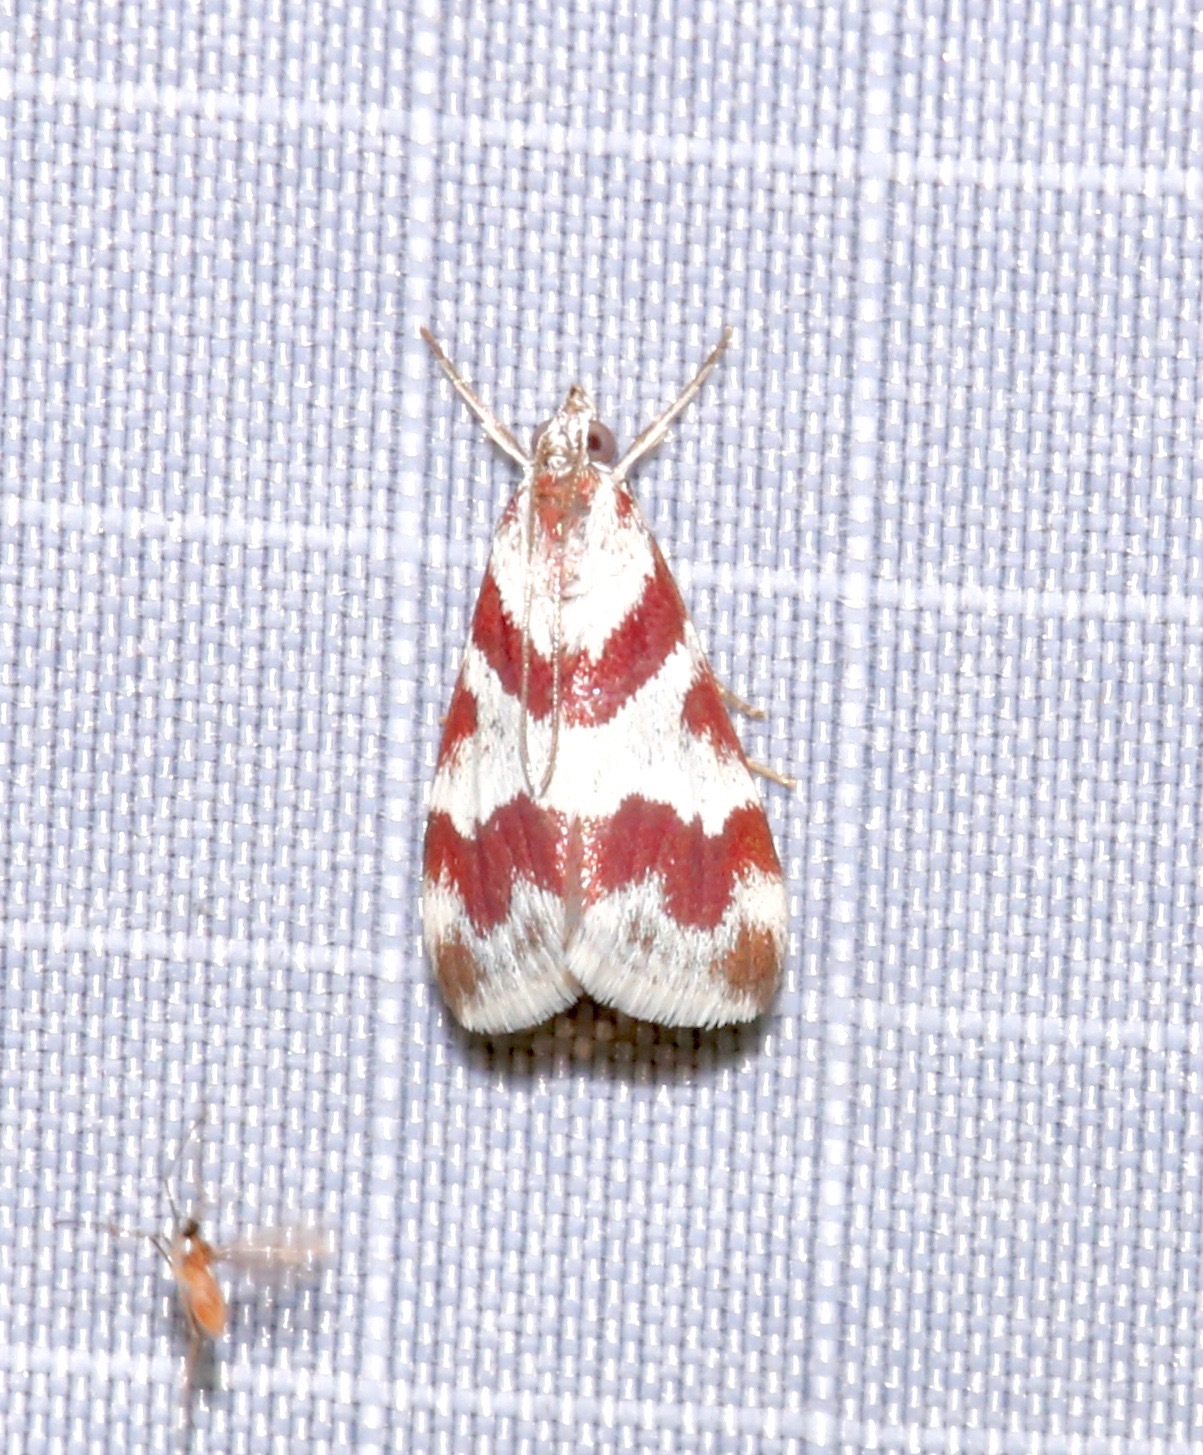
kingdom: Animalia
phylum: Arthropoda
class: Insecta
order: Lepidoptera
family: Crambidae
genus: Noctuelia
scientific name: Noctuelia Mimoschinia rufofascialis
